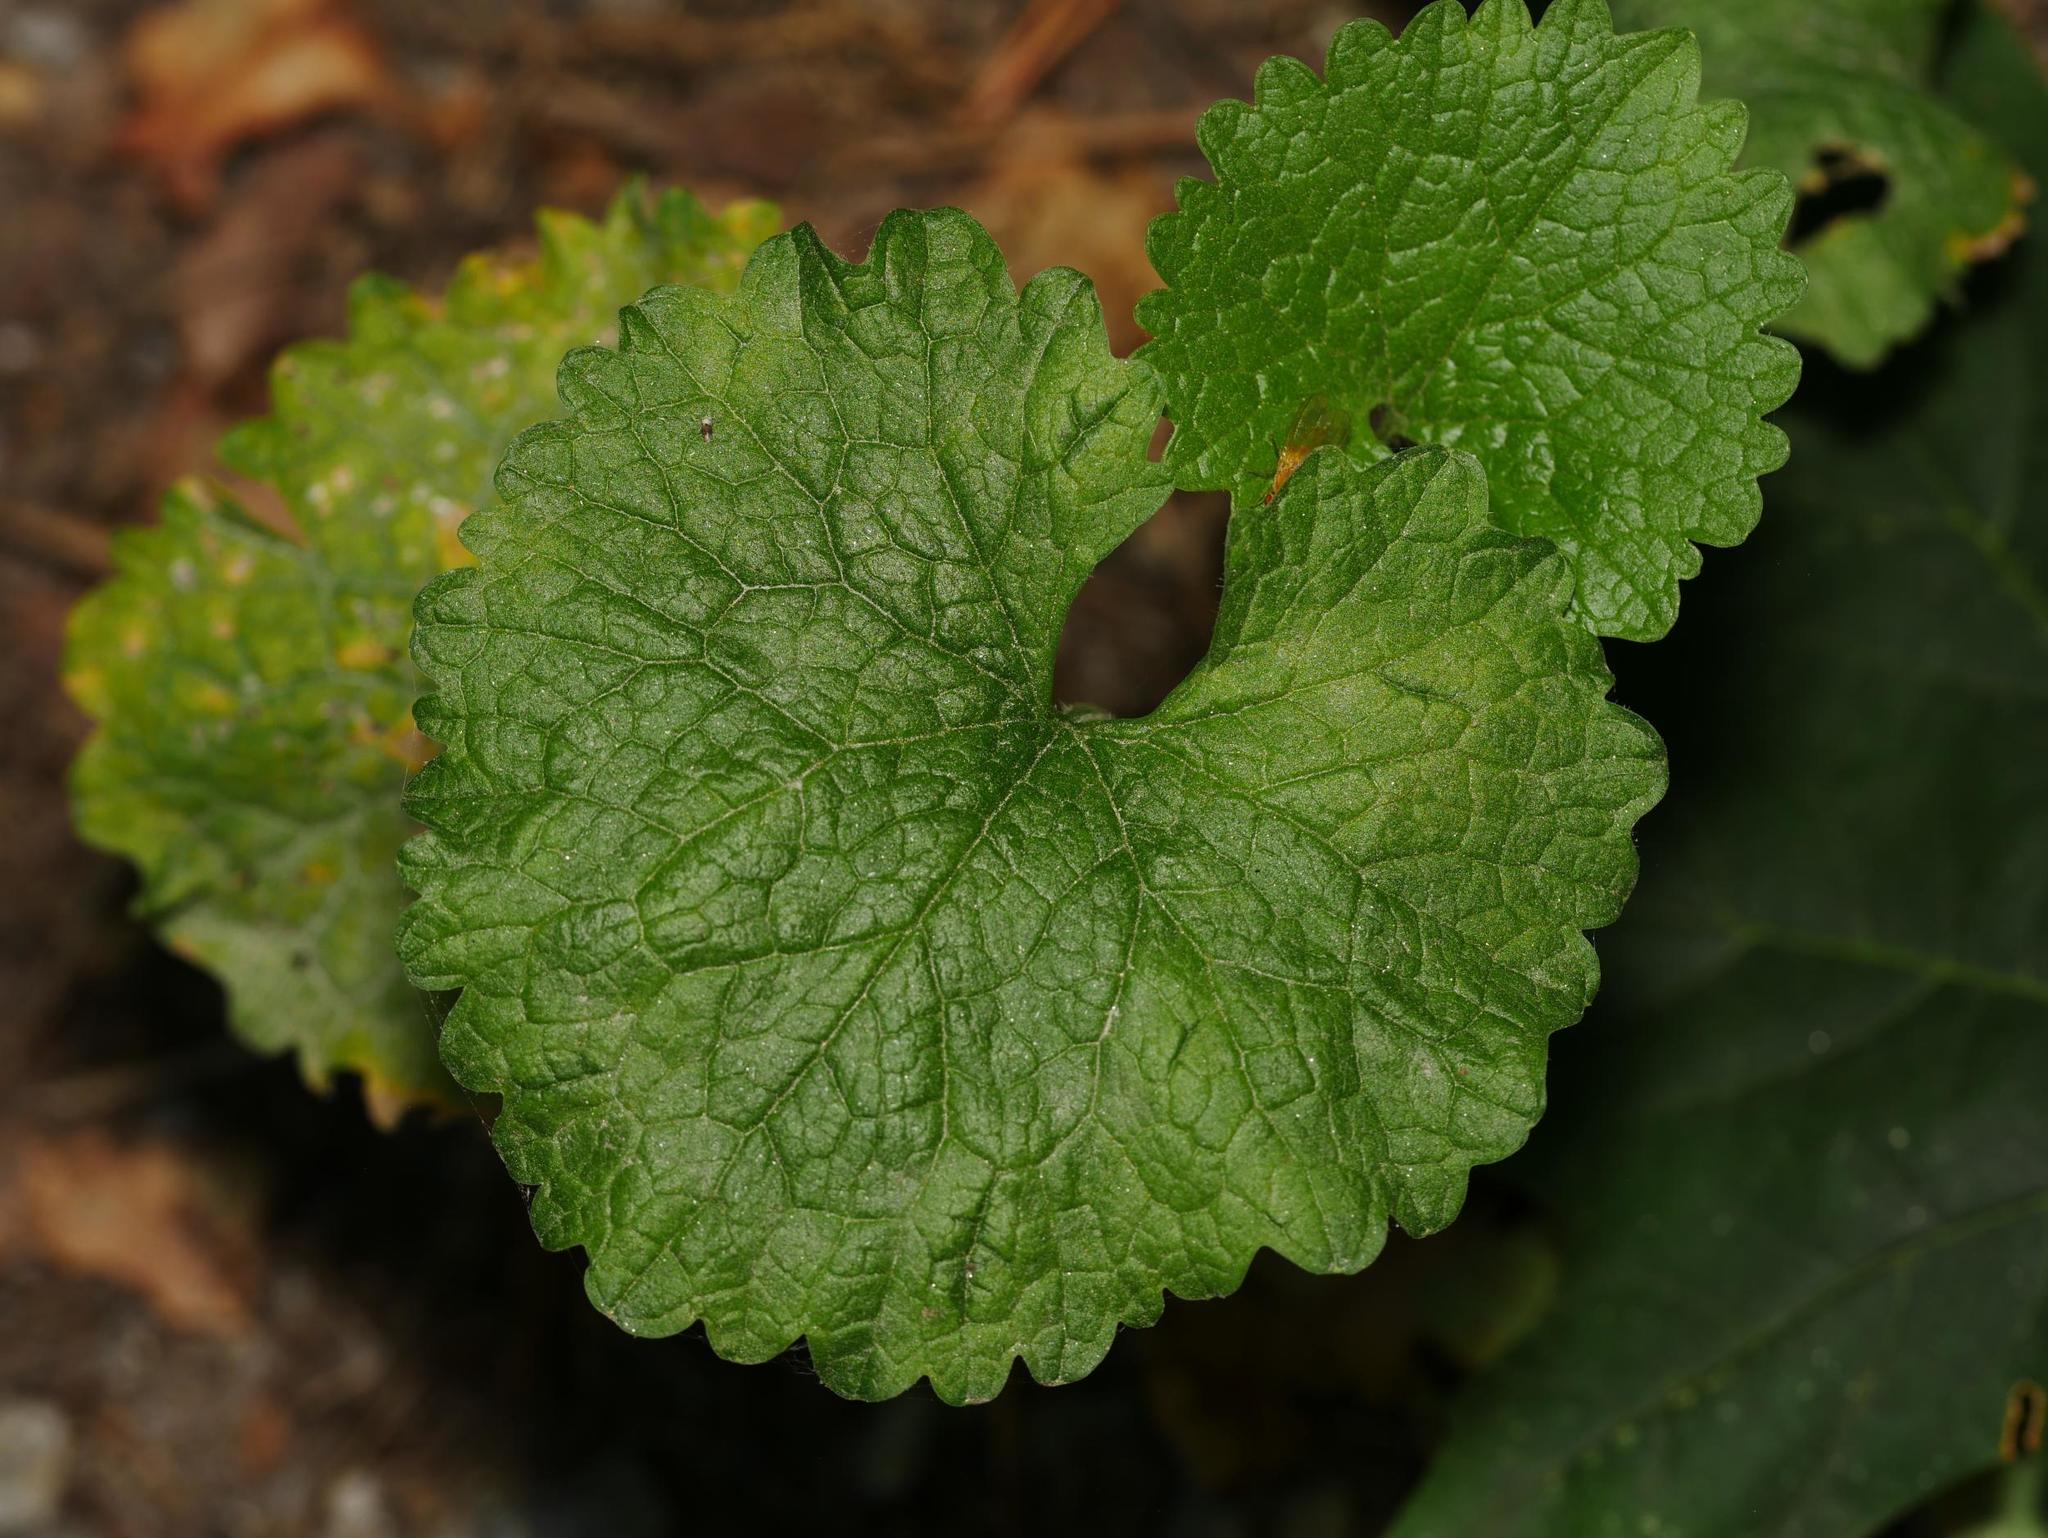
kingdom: Plantae
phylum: Tracheophyta
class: Magnoliopsida
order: Brassicales
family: Brassicaceae
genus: Alliaria
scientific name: Alliaria petiolata
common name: Garlic mustard
